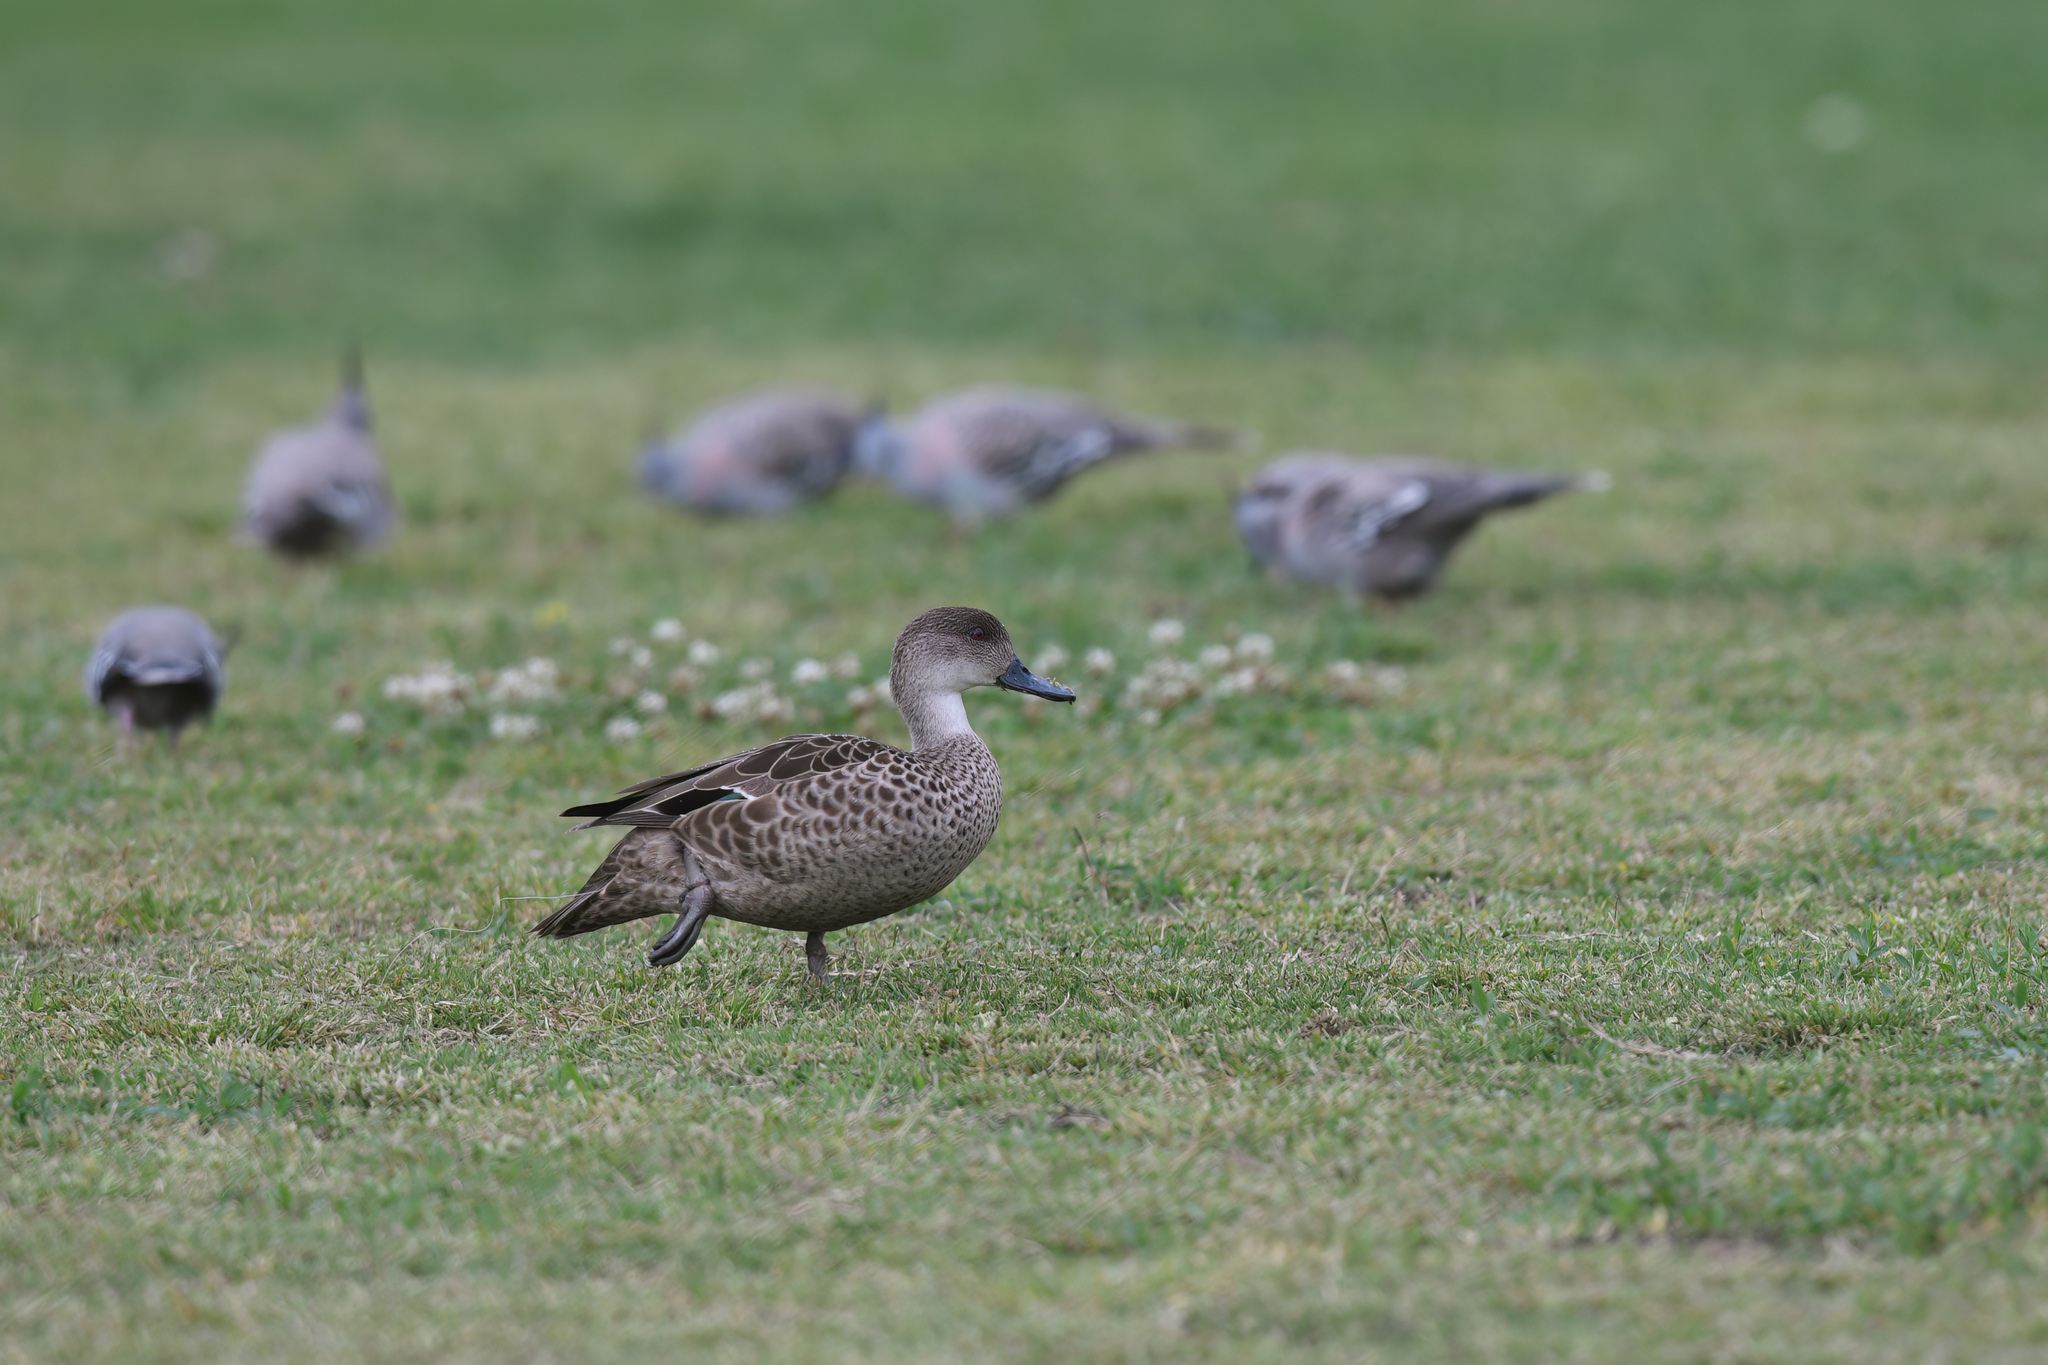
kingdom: Animalia
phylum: Chordata
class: Aves
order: Anseriformes
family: Anatidae
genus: Anas
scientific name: Anas gracilis
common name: Grey teal
